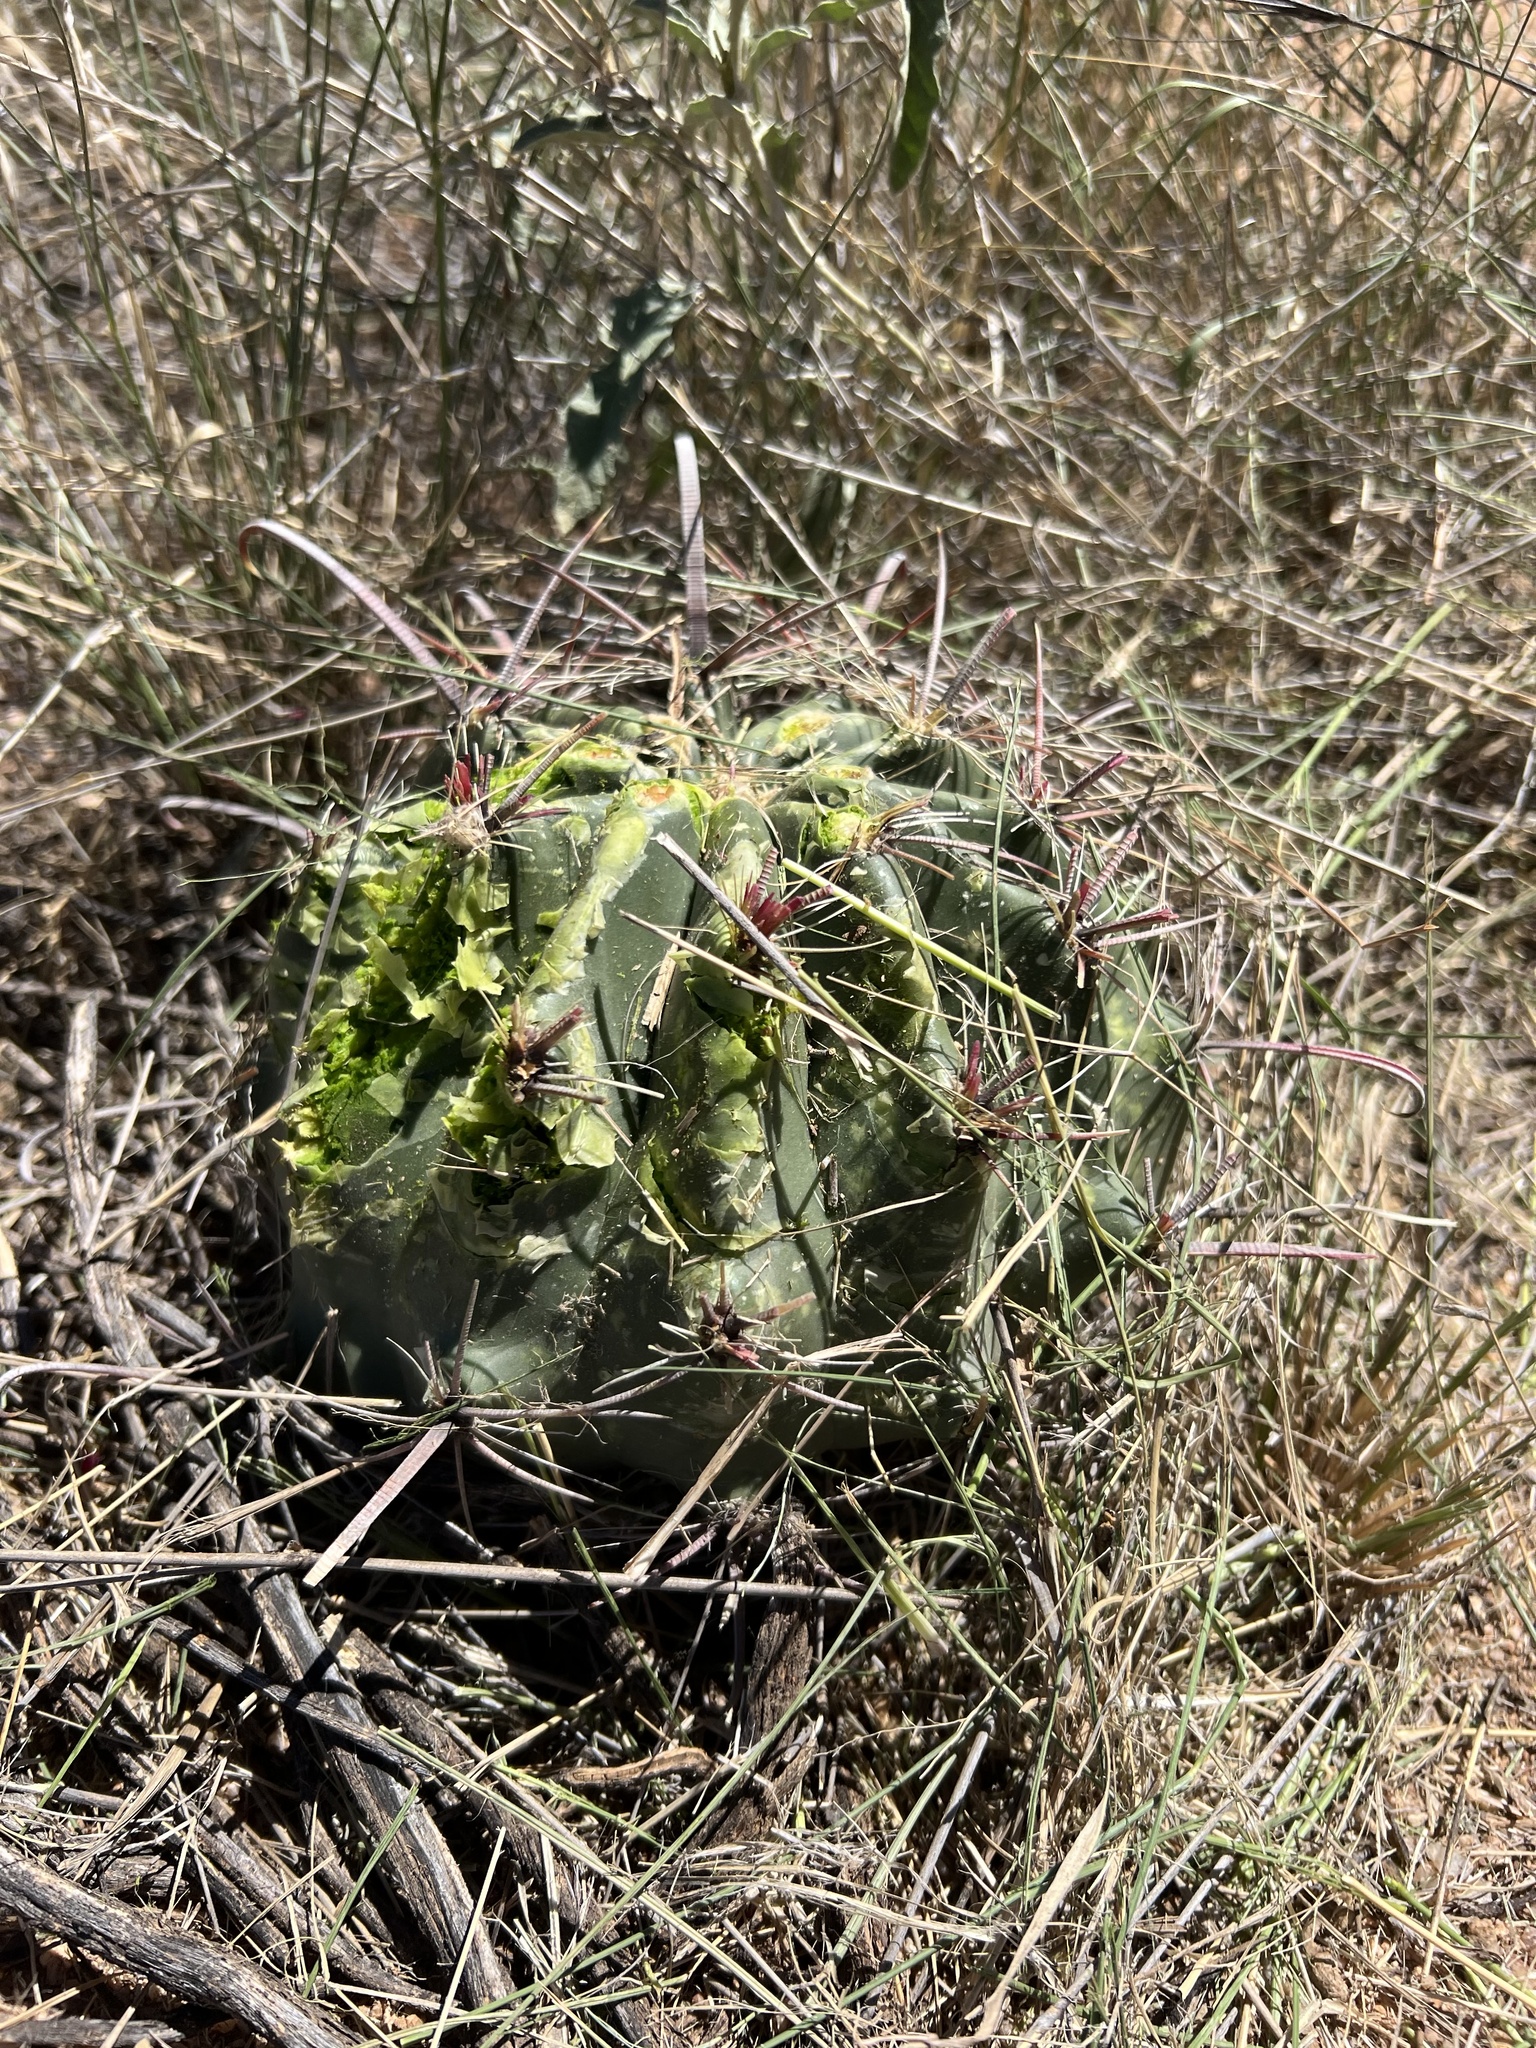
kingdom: Plantae
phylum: Tracheophyta
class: Magnoliopsida
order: Caryophyllales
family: Cactaceae
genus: Ferocactus
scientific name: Ferocactus wislizeni
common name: Candy barrel cactus
